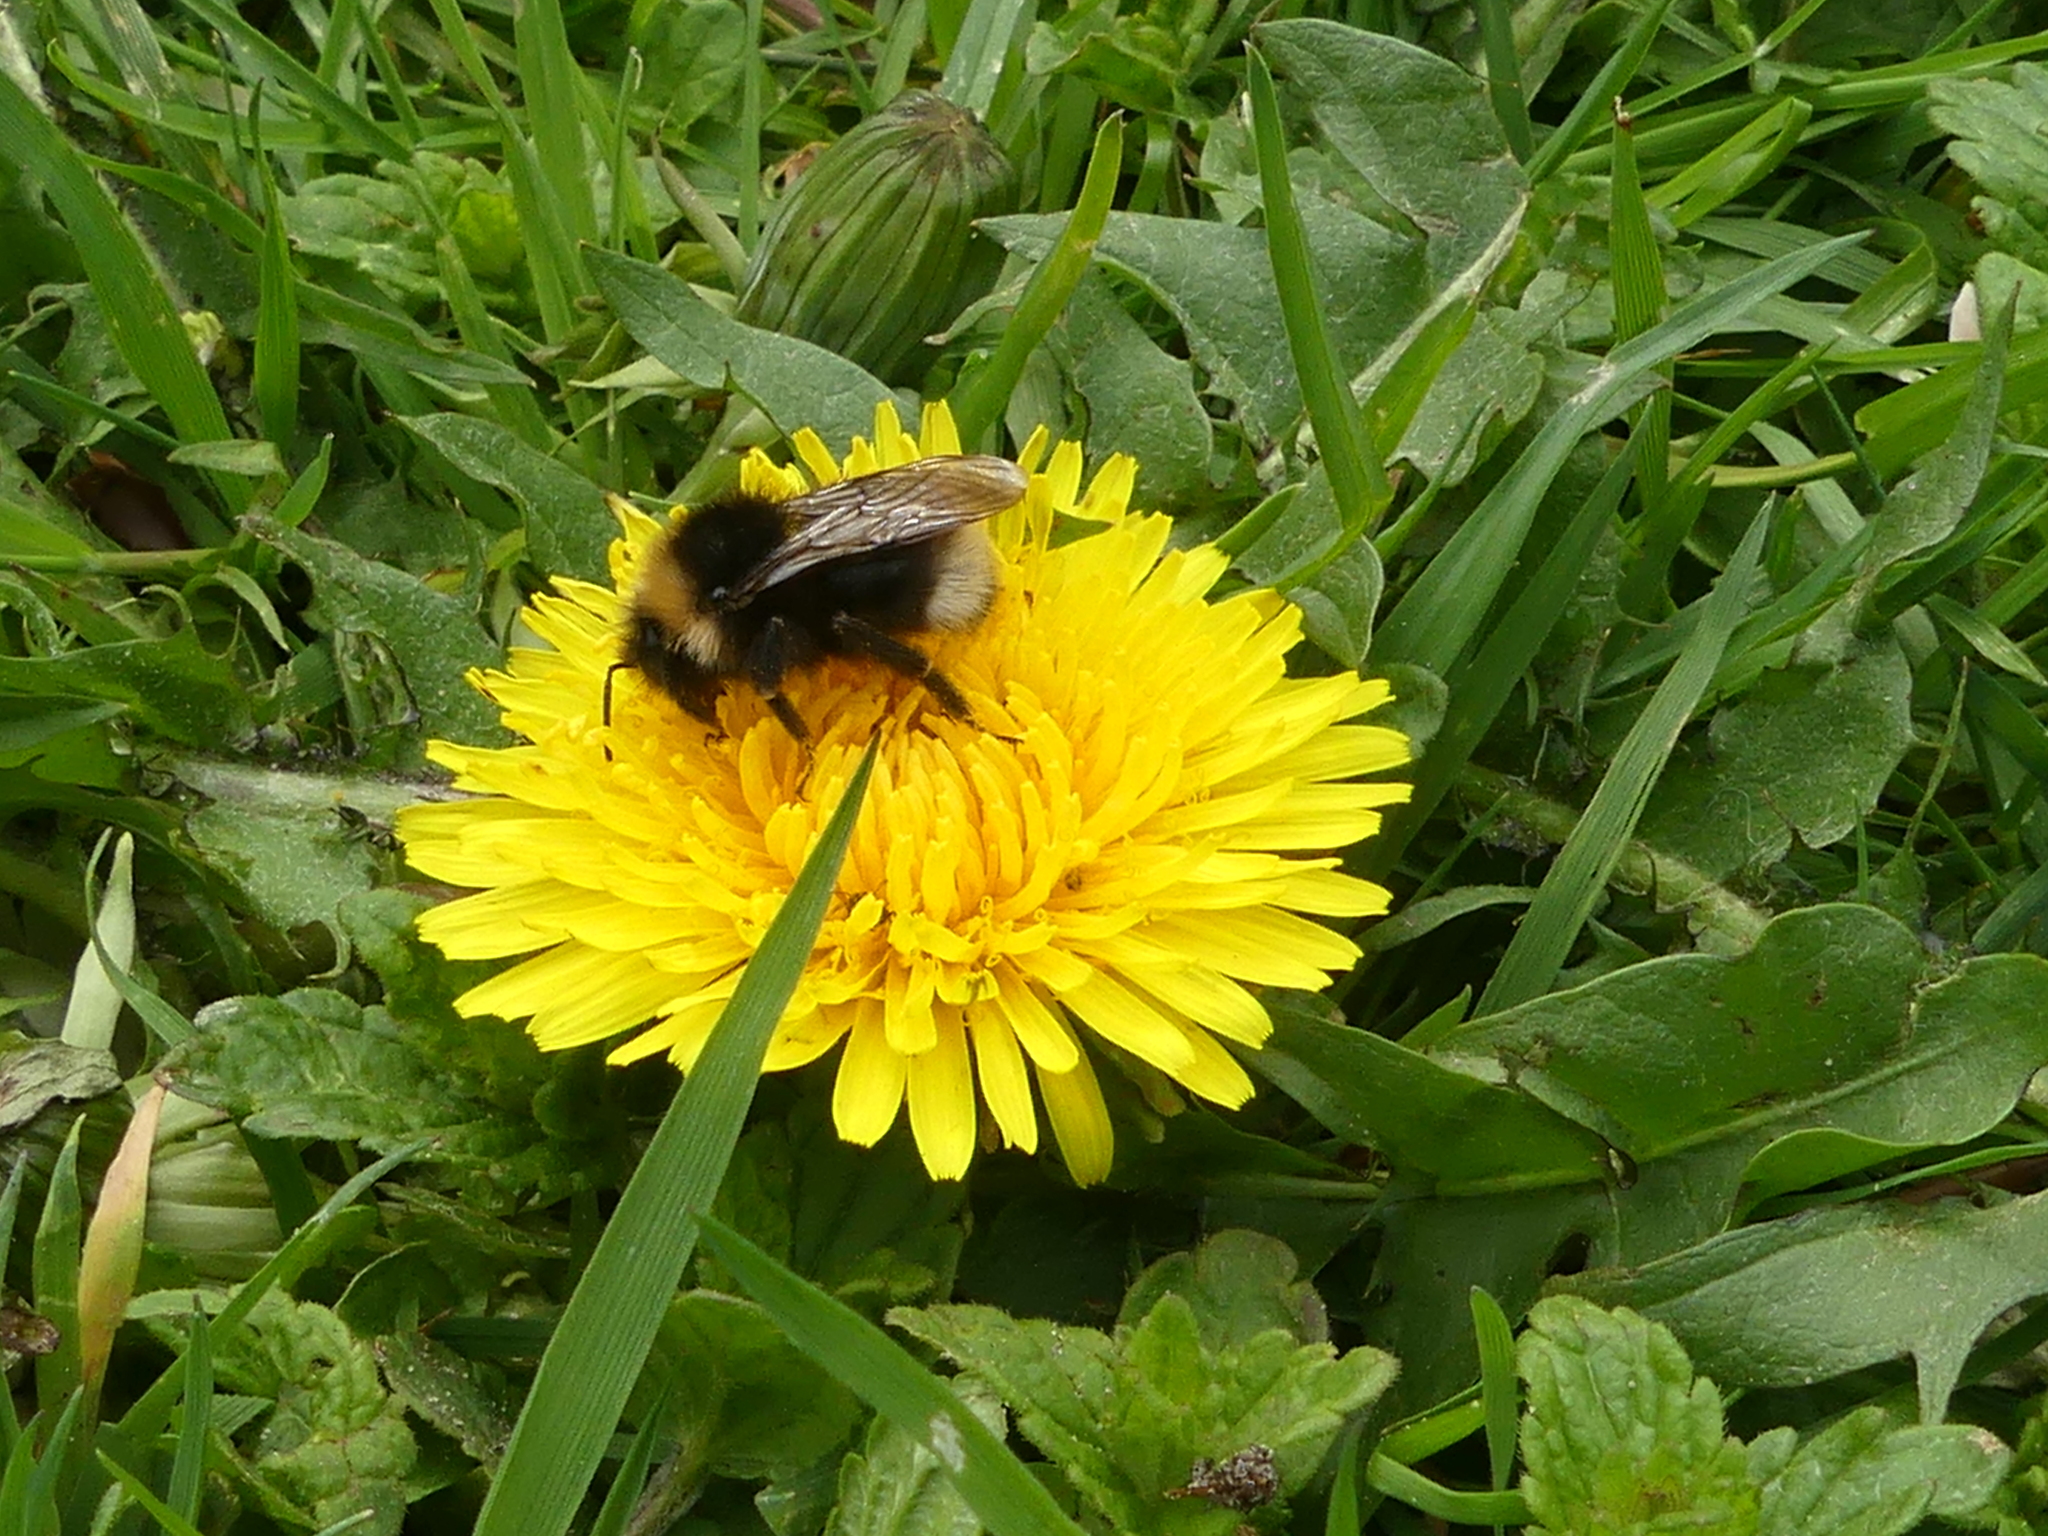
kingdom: Animalia
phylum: Arthropoda
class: Insecta
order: Hymenoptera
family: Apidae
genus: Bombus
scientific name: Bombus bohemicus
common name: Gypsy cuckoo bee
